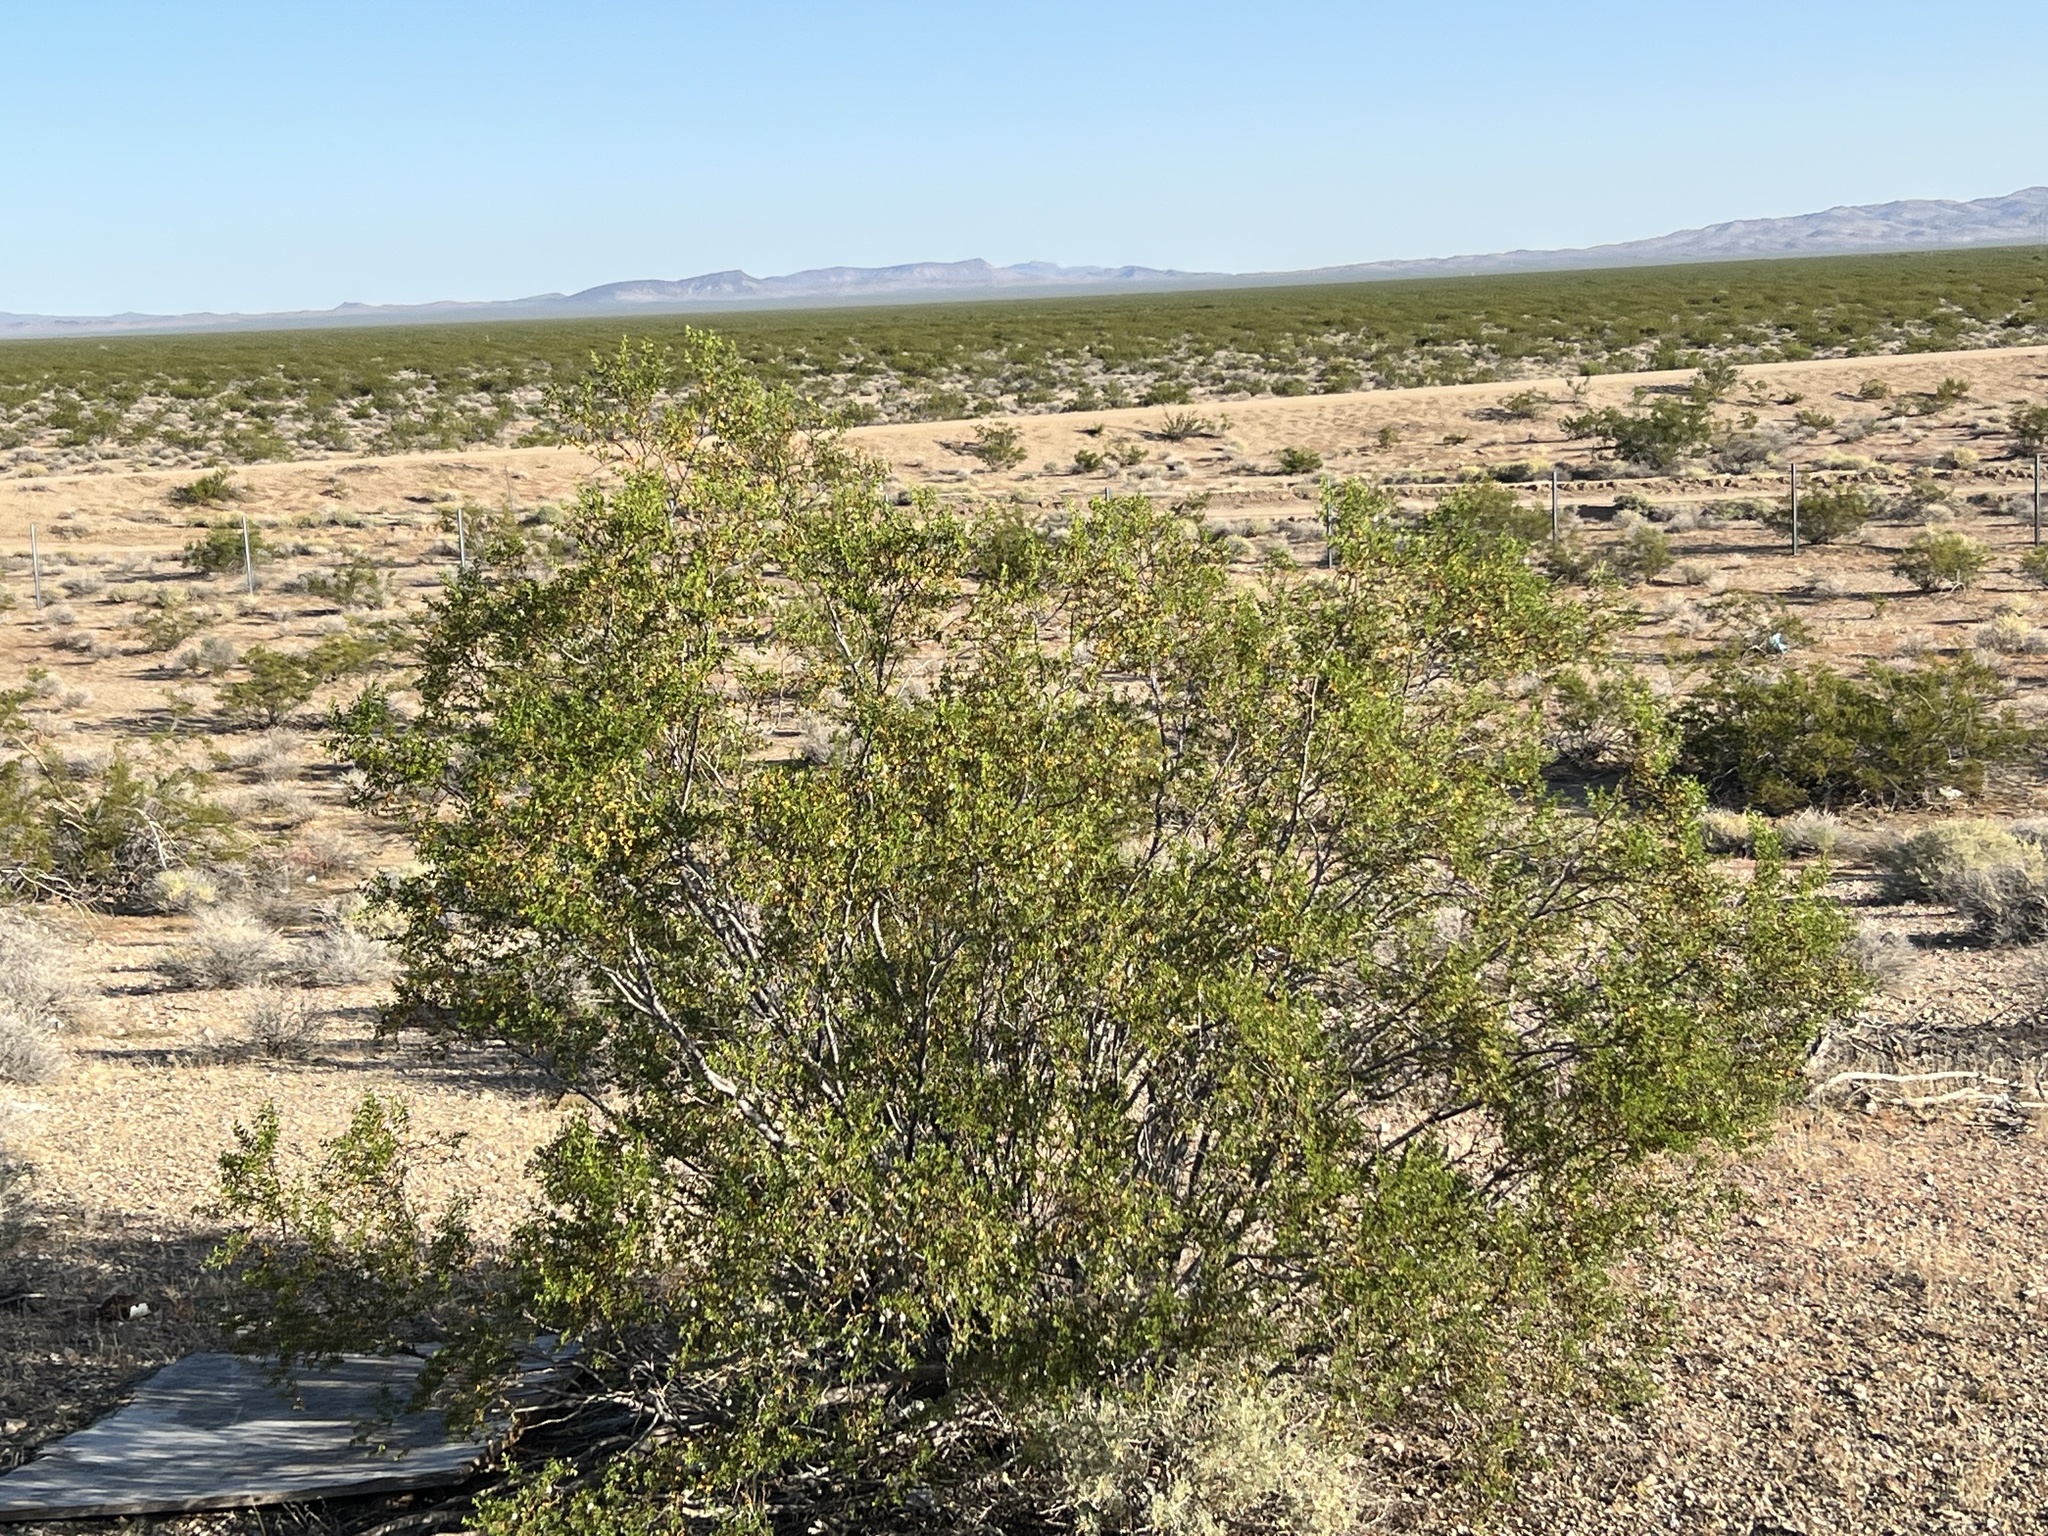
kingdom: Plantae
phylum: Tracheophyta
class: Magnoliopsida
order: Zygophyllales
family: Zygophyllaceae
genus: Larrea
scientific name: Larrea tridentata
